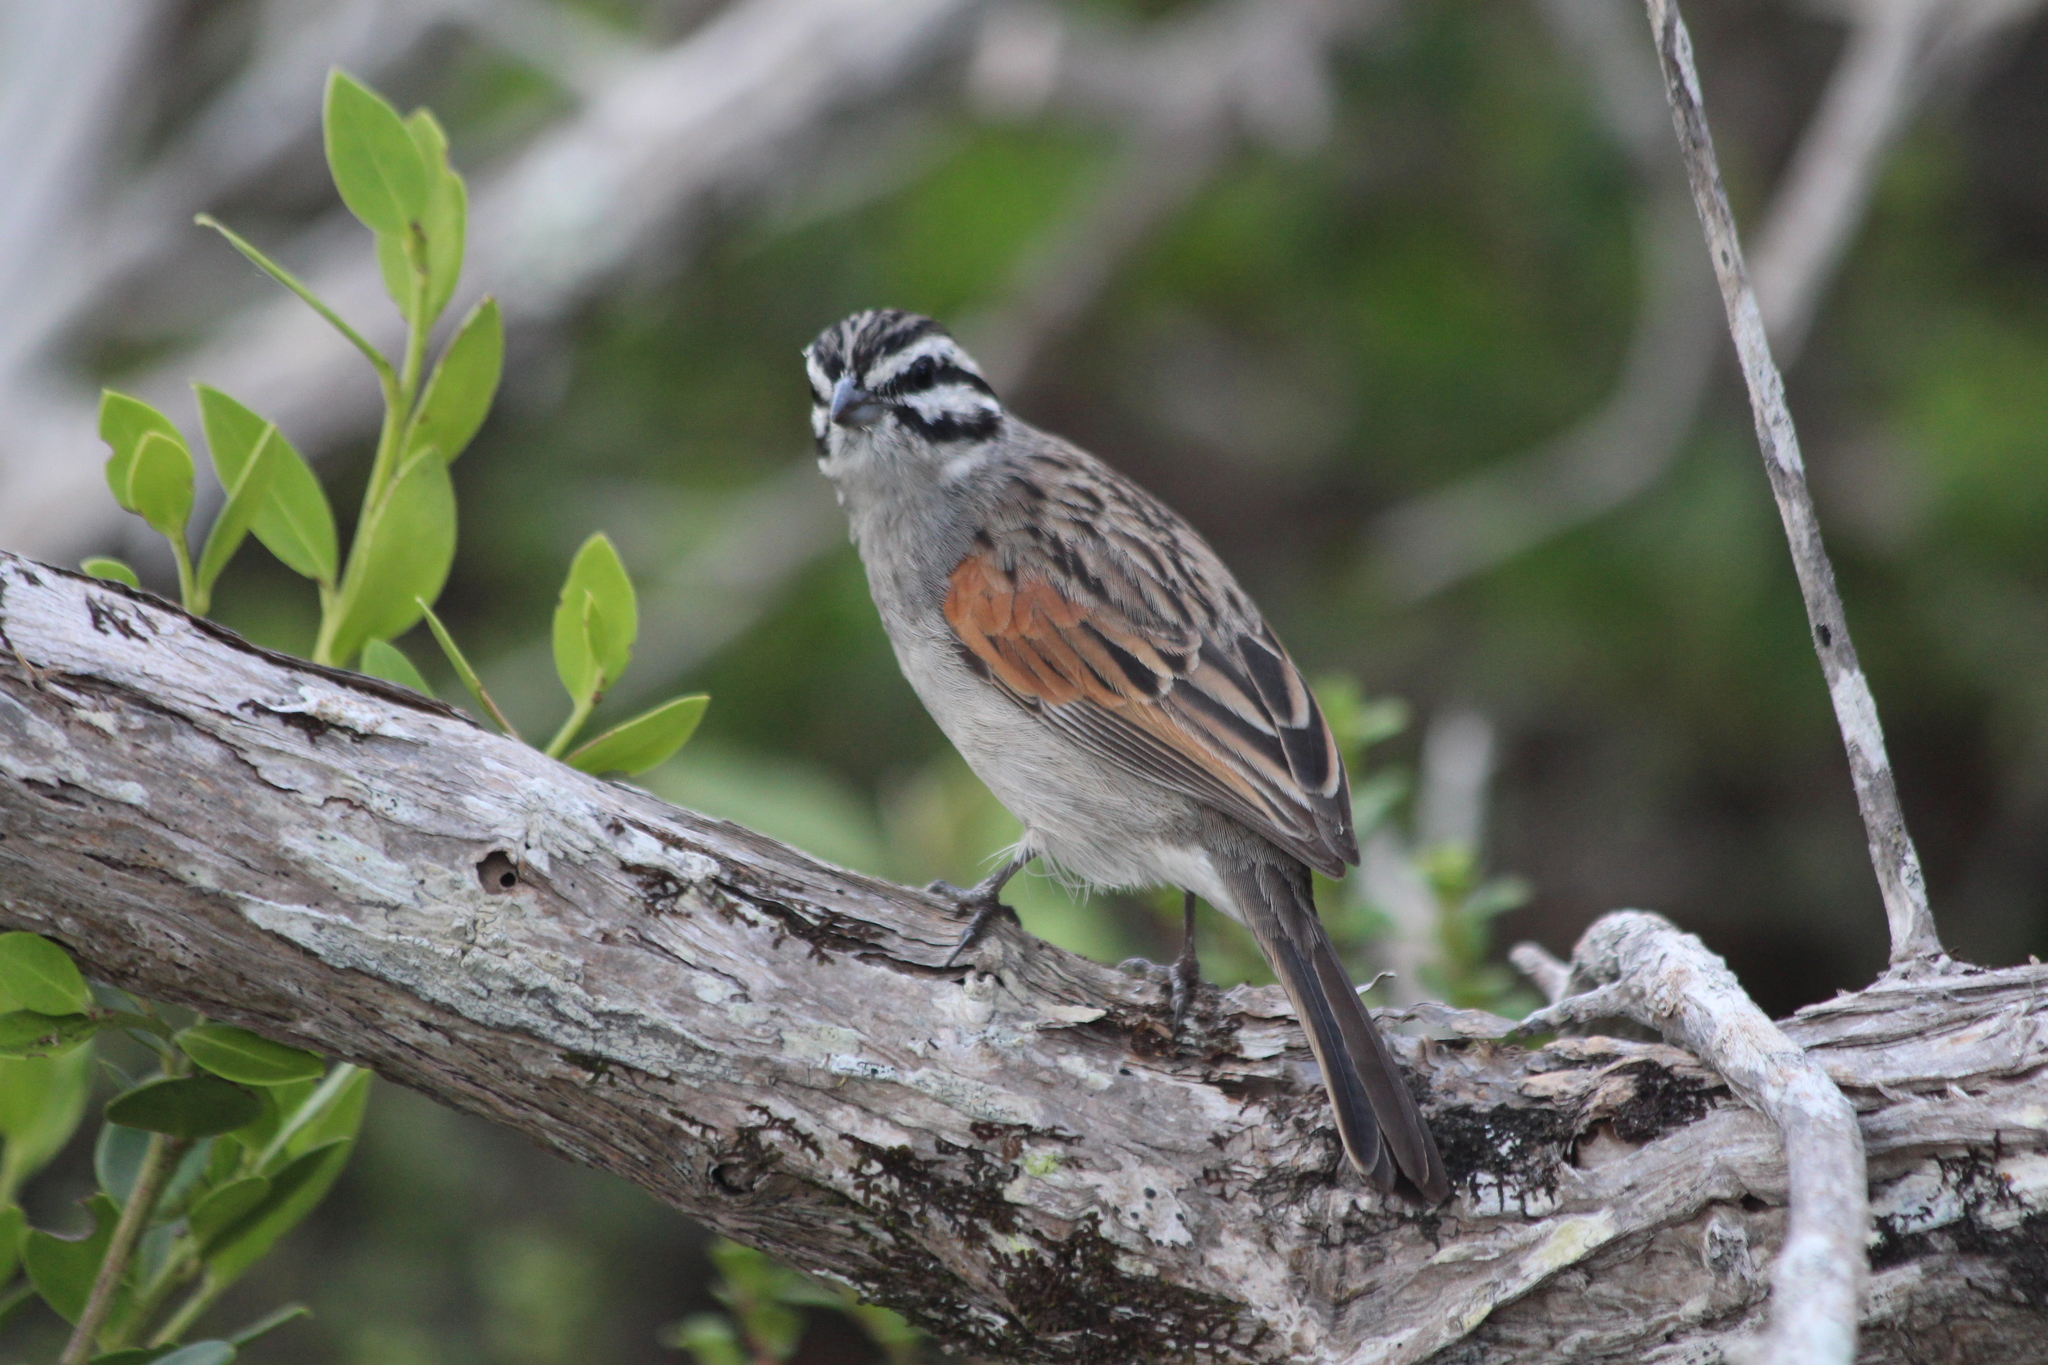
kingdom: Animalia
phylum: Chordata
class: Aves
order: Passeriformes
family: Emberizidae
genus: Emberiza
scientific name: Emberiza capensis
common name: Cape bunting
